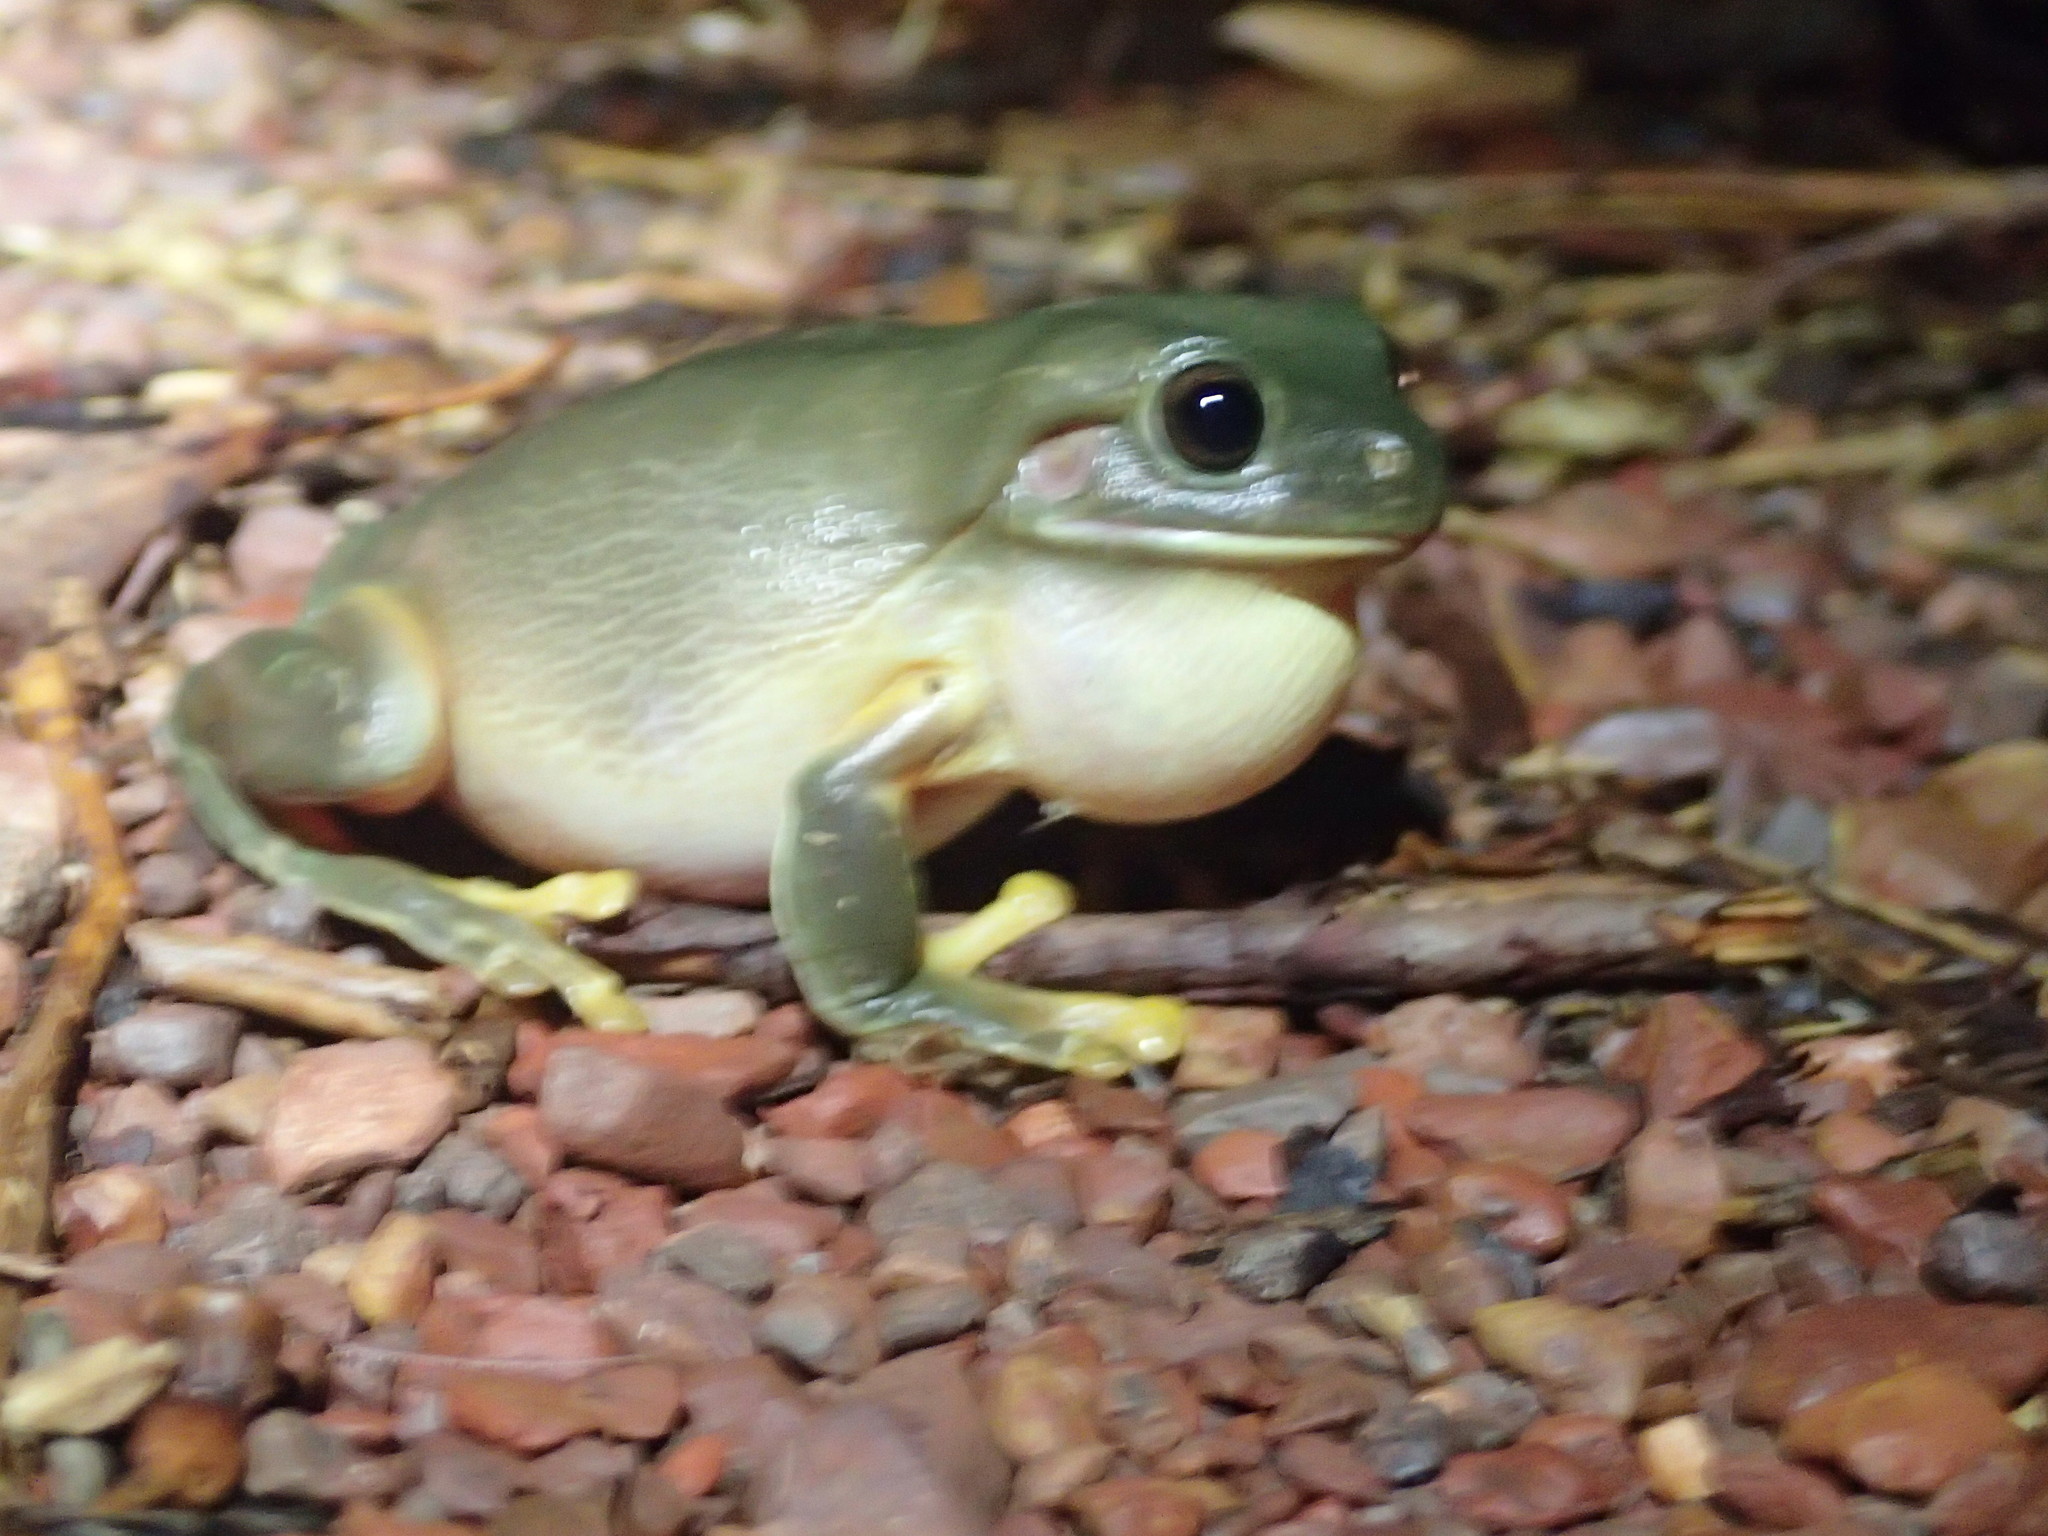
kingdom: Animalia
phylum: Chordata
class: Amphibia
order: Anura
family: Pelodryadidae
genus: Ranoidea
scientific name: Ranoidea caerulea
